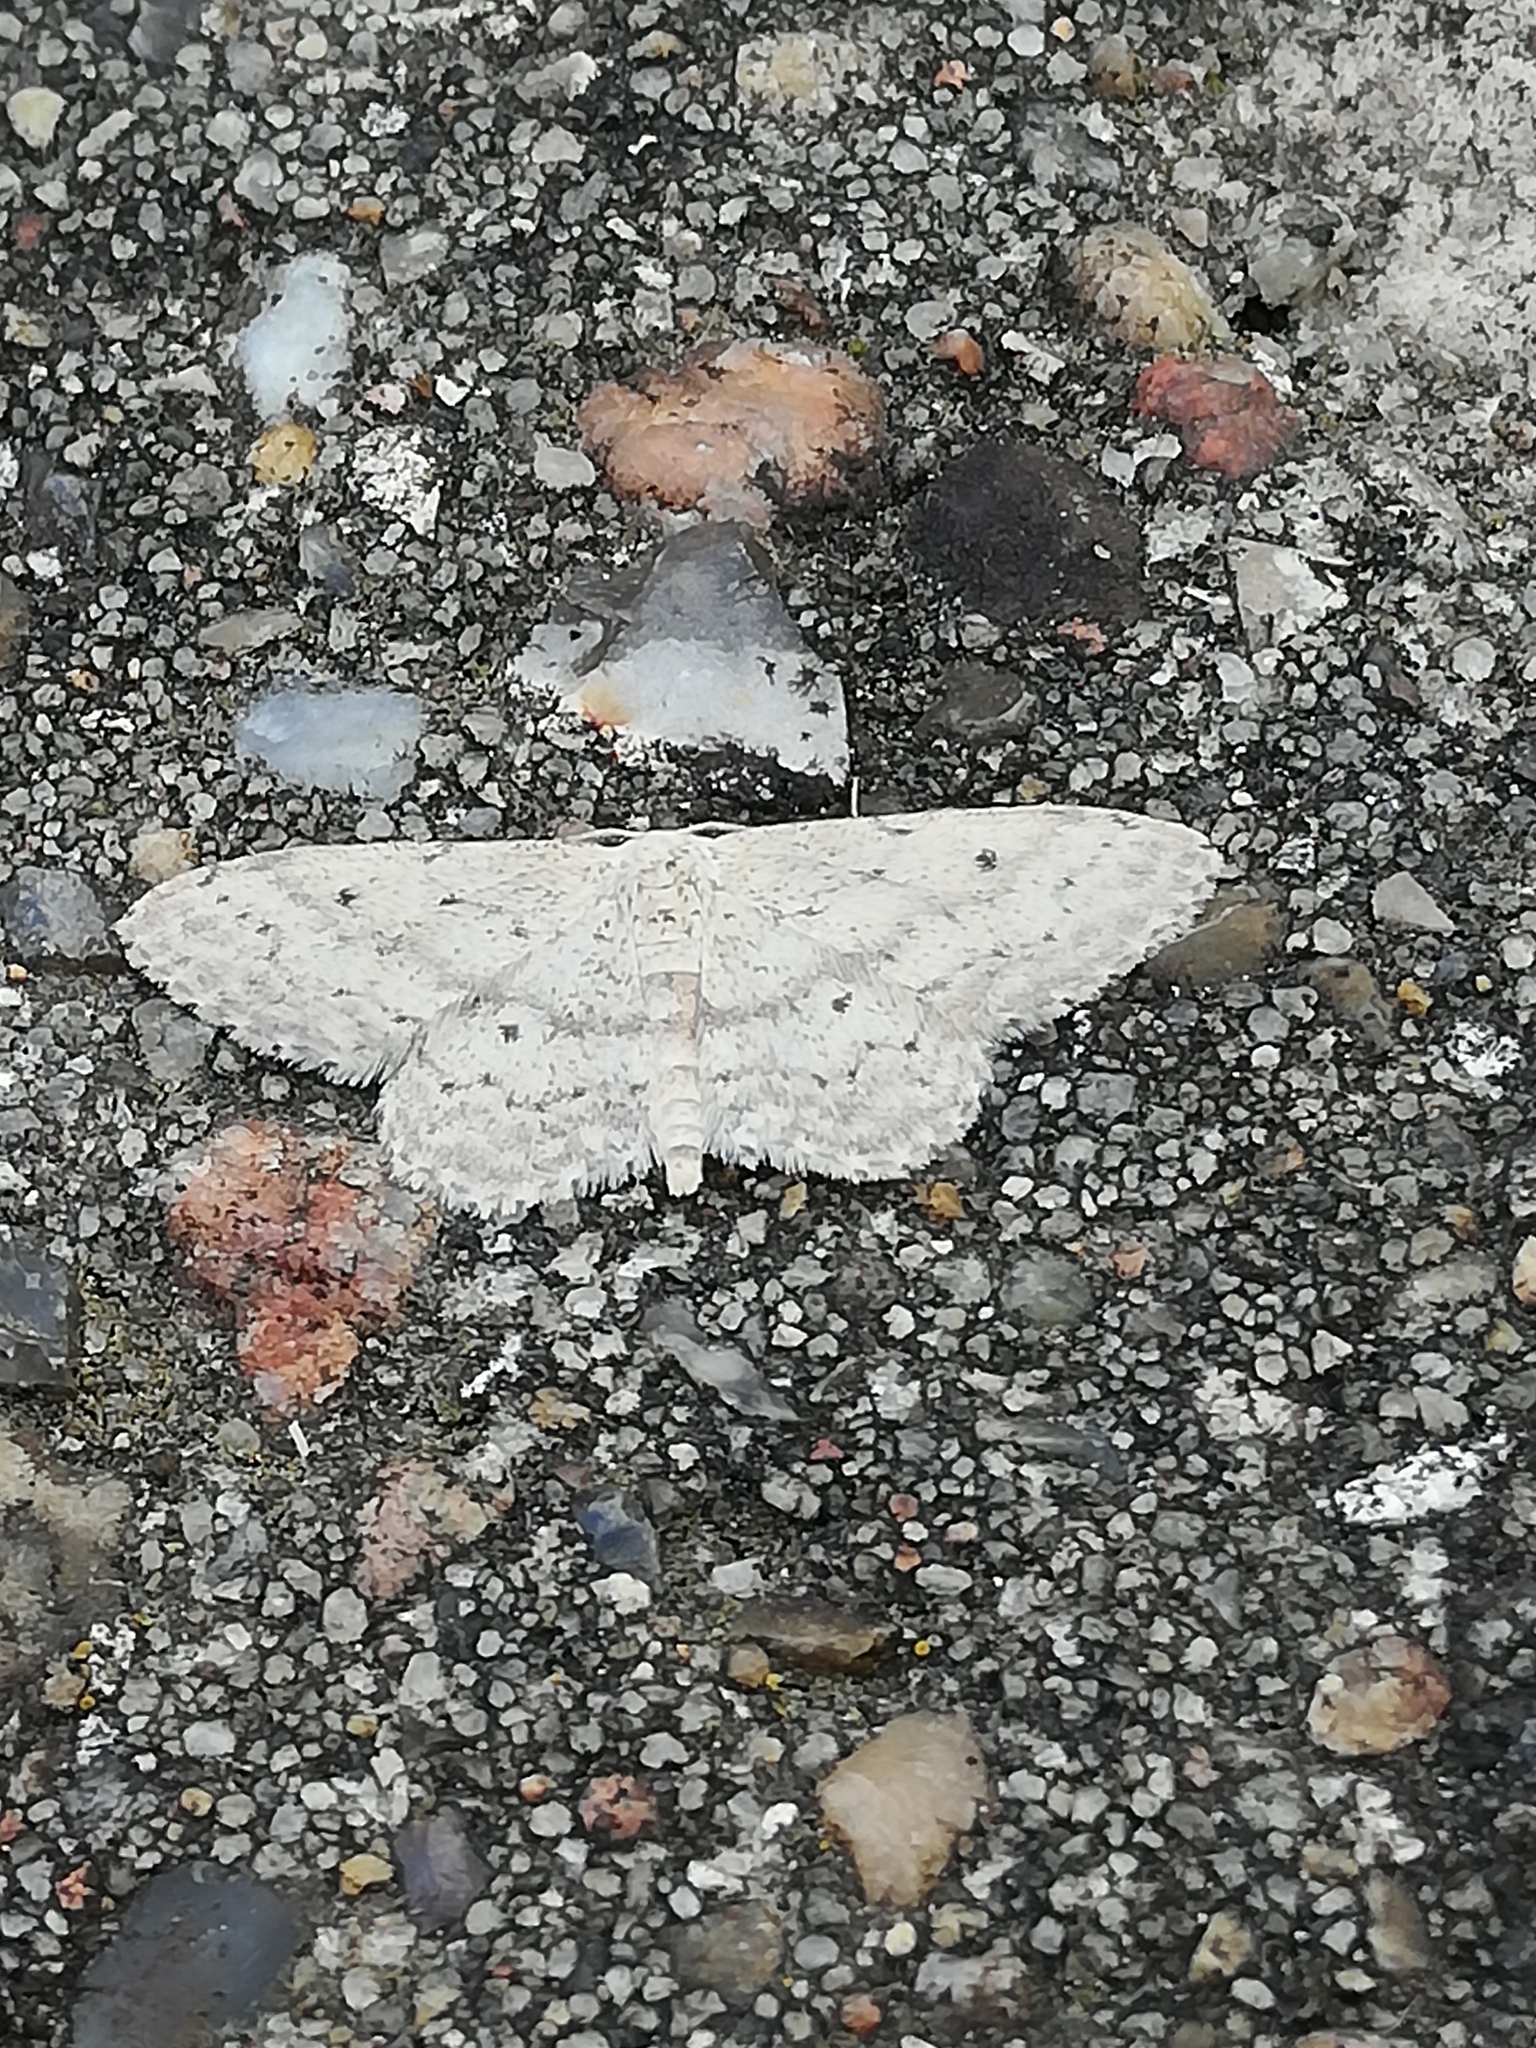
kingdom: Animalia
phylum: Arthropoda
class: Insecta
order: Lepidoptera
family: Geometridae
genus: Idaea
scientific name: Idaea seriata
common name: Small dusty wave
